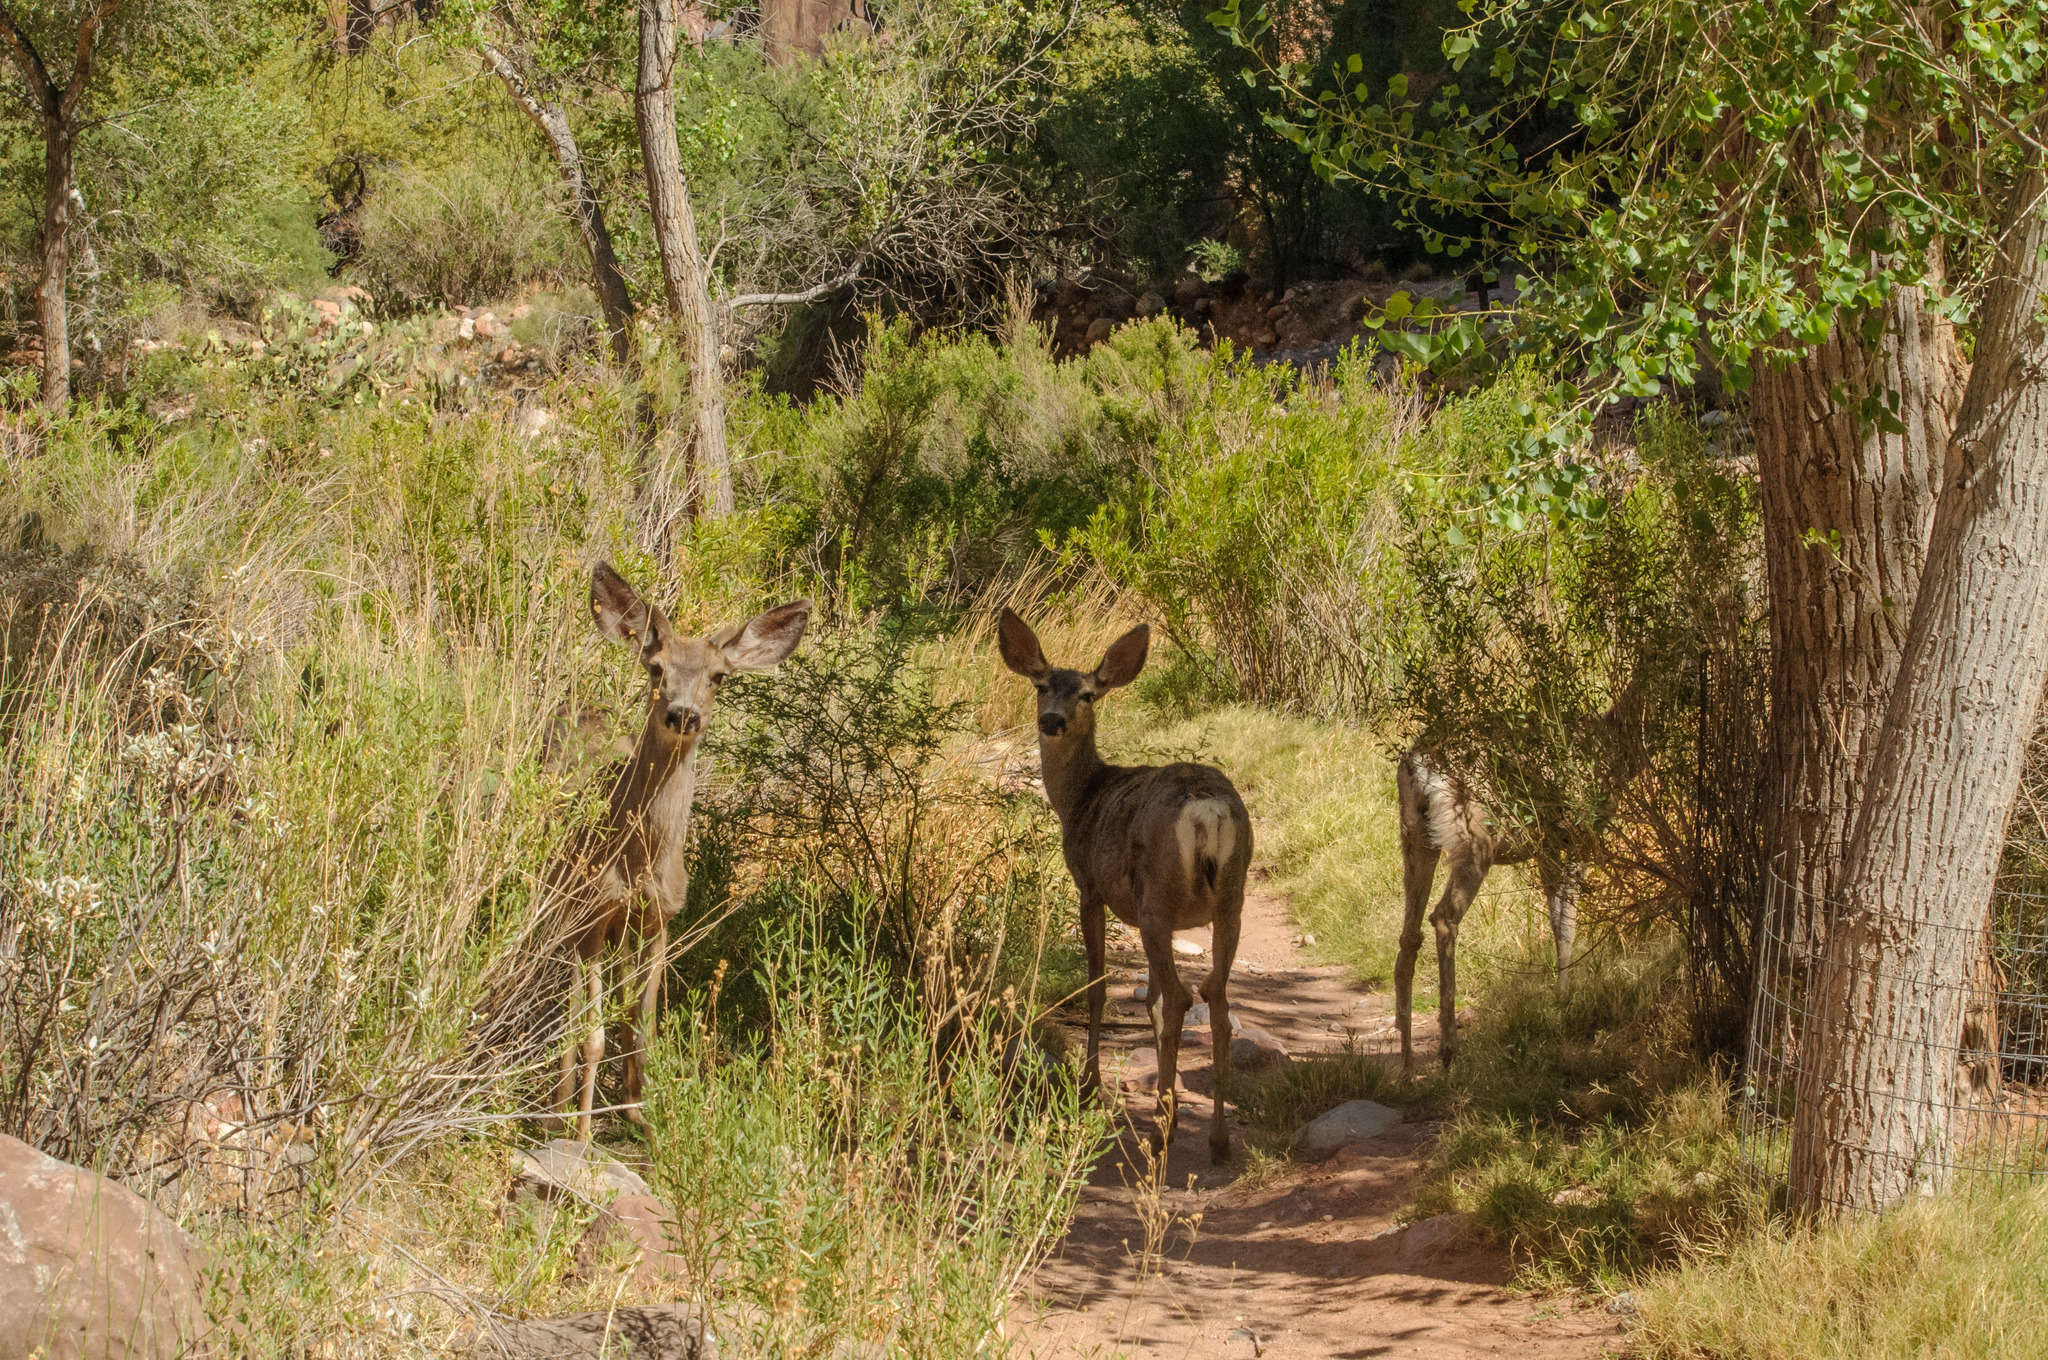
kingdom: Animalia
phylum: Chordata
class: Mammalia
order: Artiodactyla
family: Cervidae
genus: Odocoileus
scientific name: Odocoileus hemionus
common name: Mule deer
